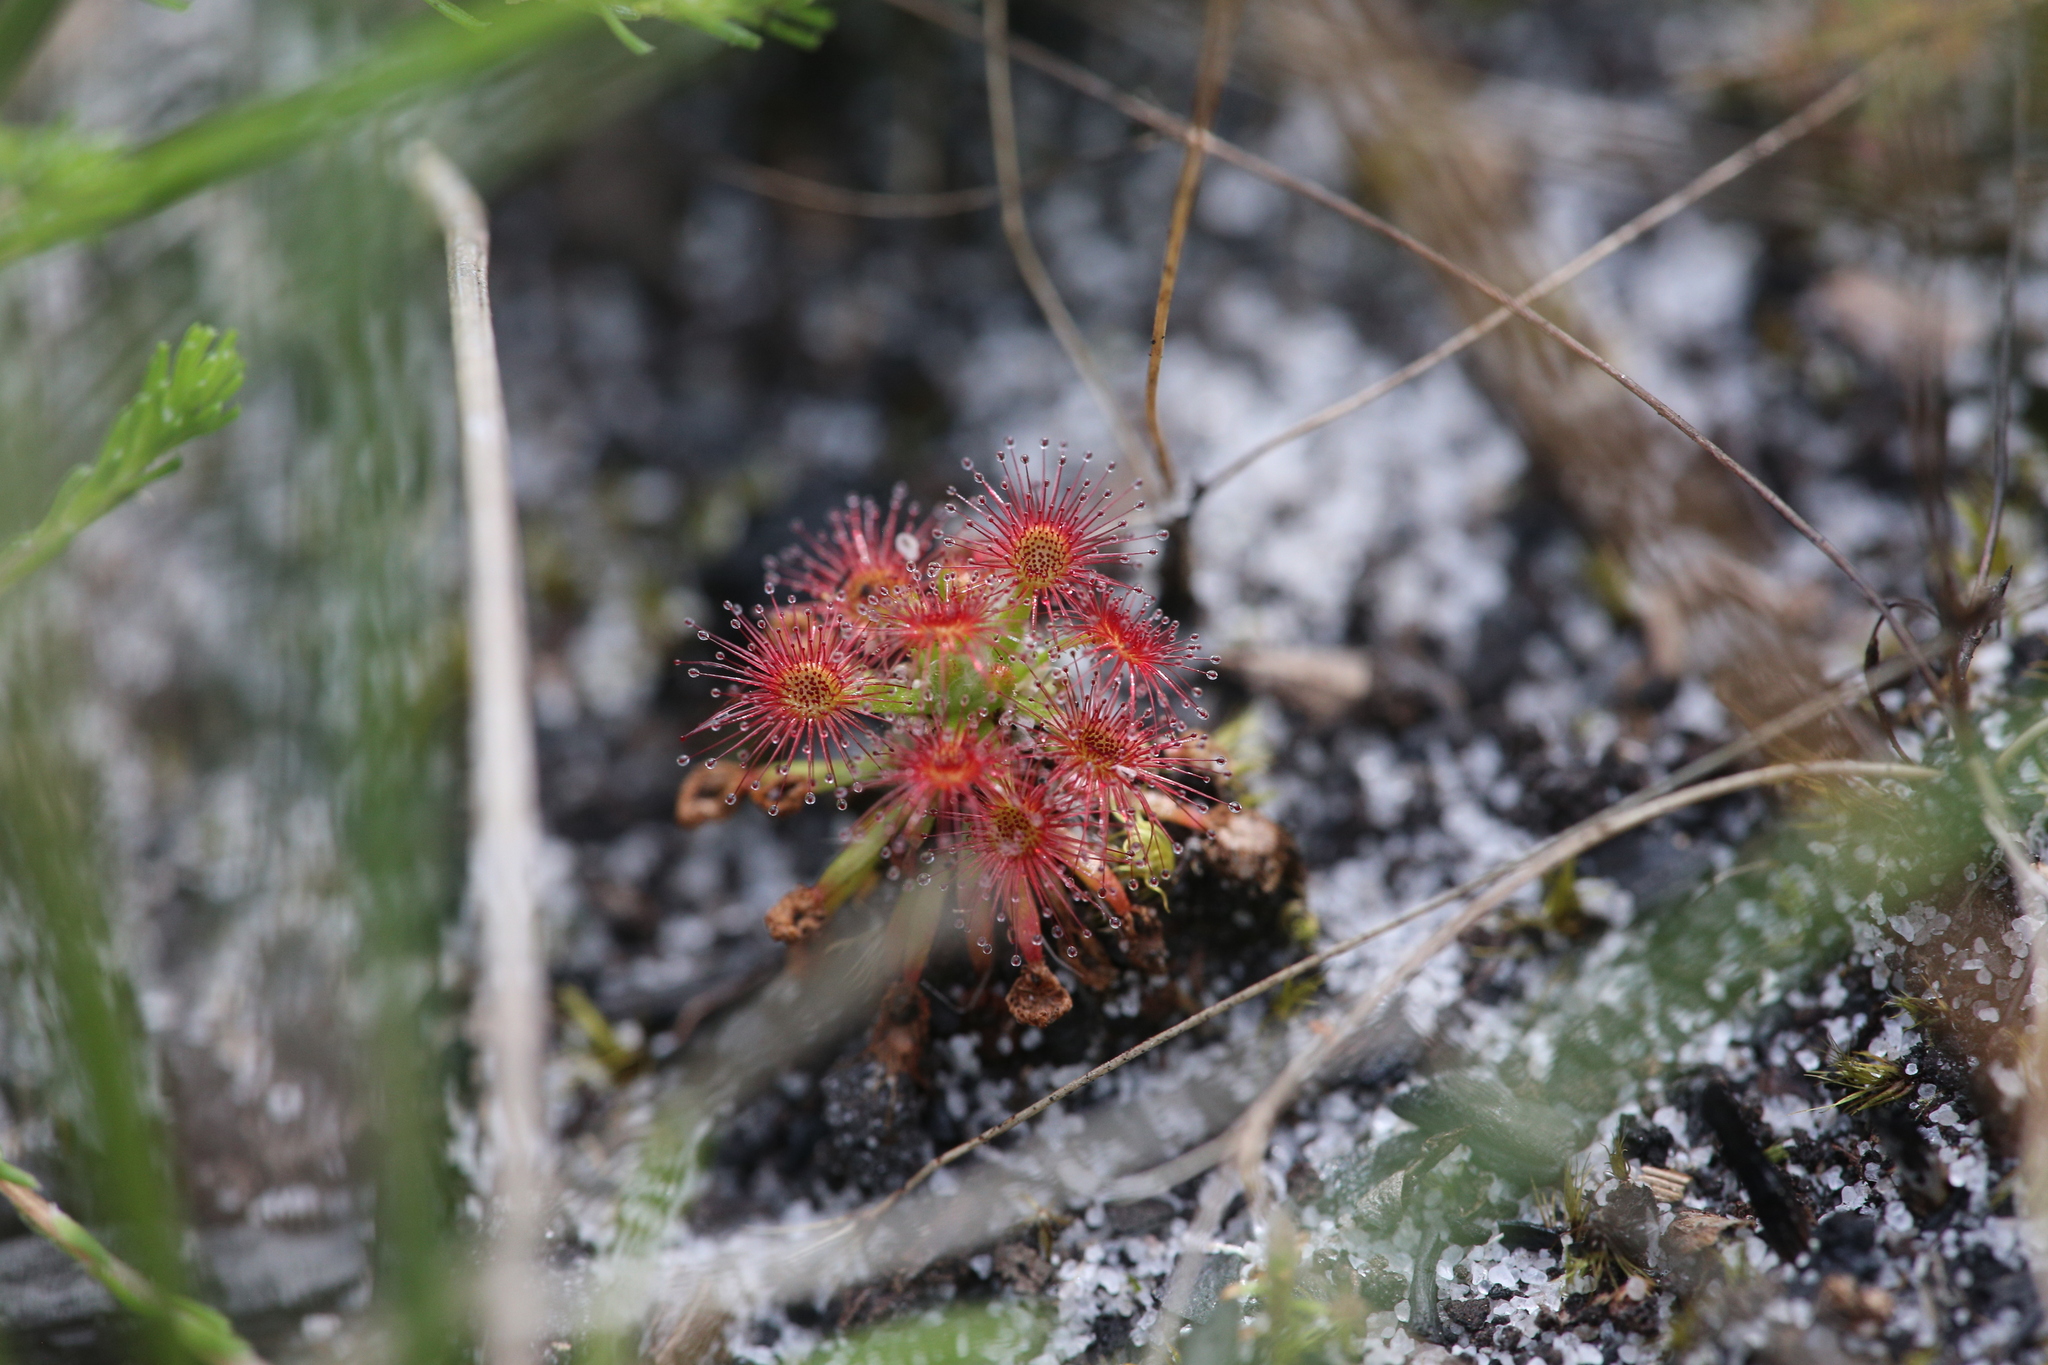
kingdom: Plantae
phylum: Tracheophyta
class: Magnoliopsida
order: Caryophyllales
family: Droseraceae
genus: Drosera
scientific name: Drosera paleacea
